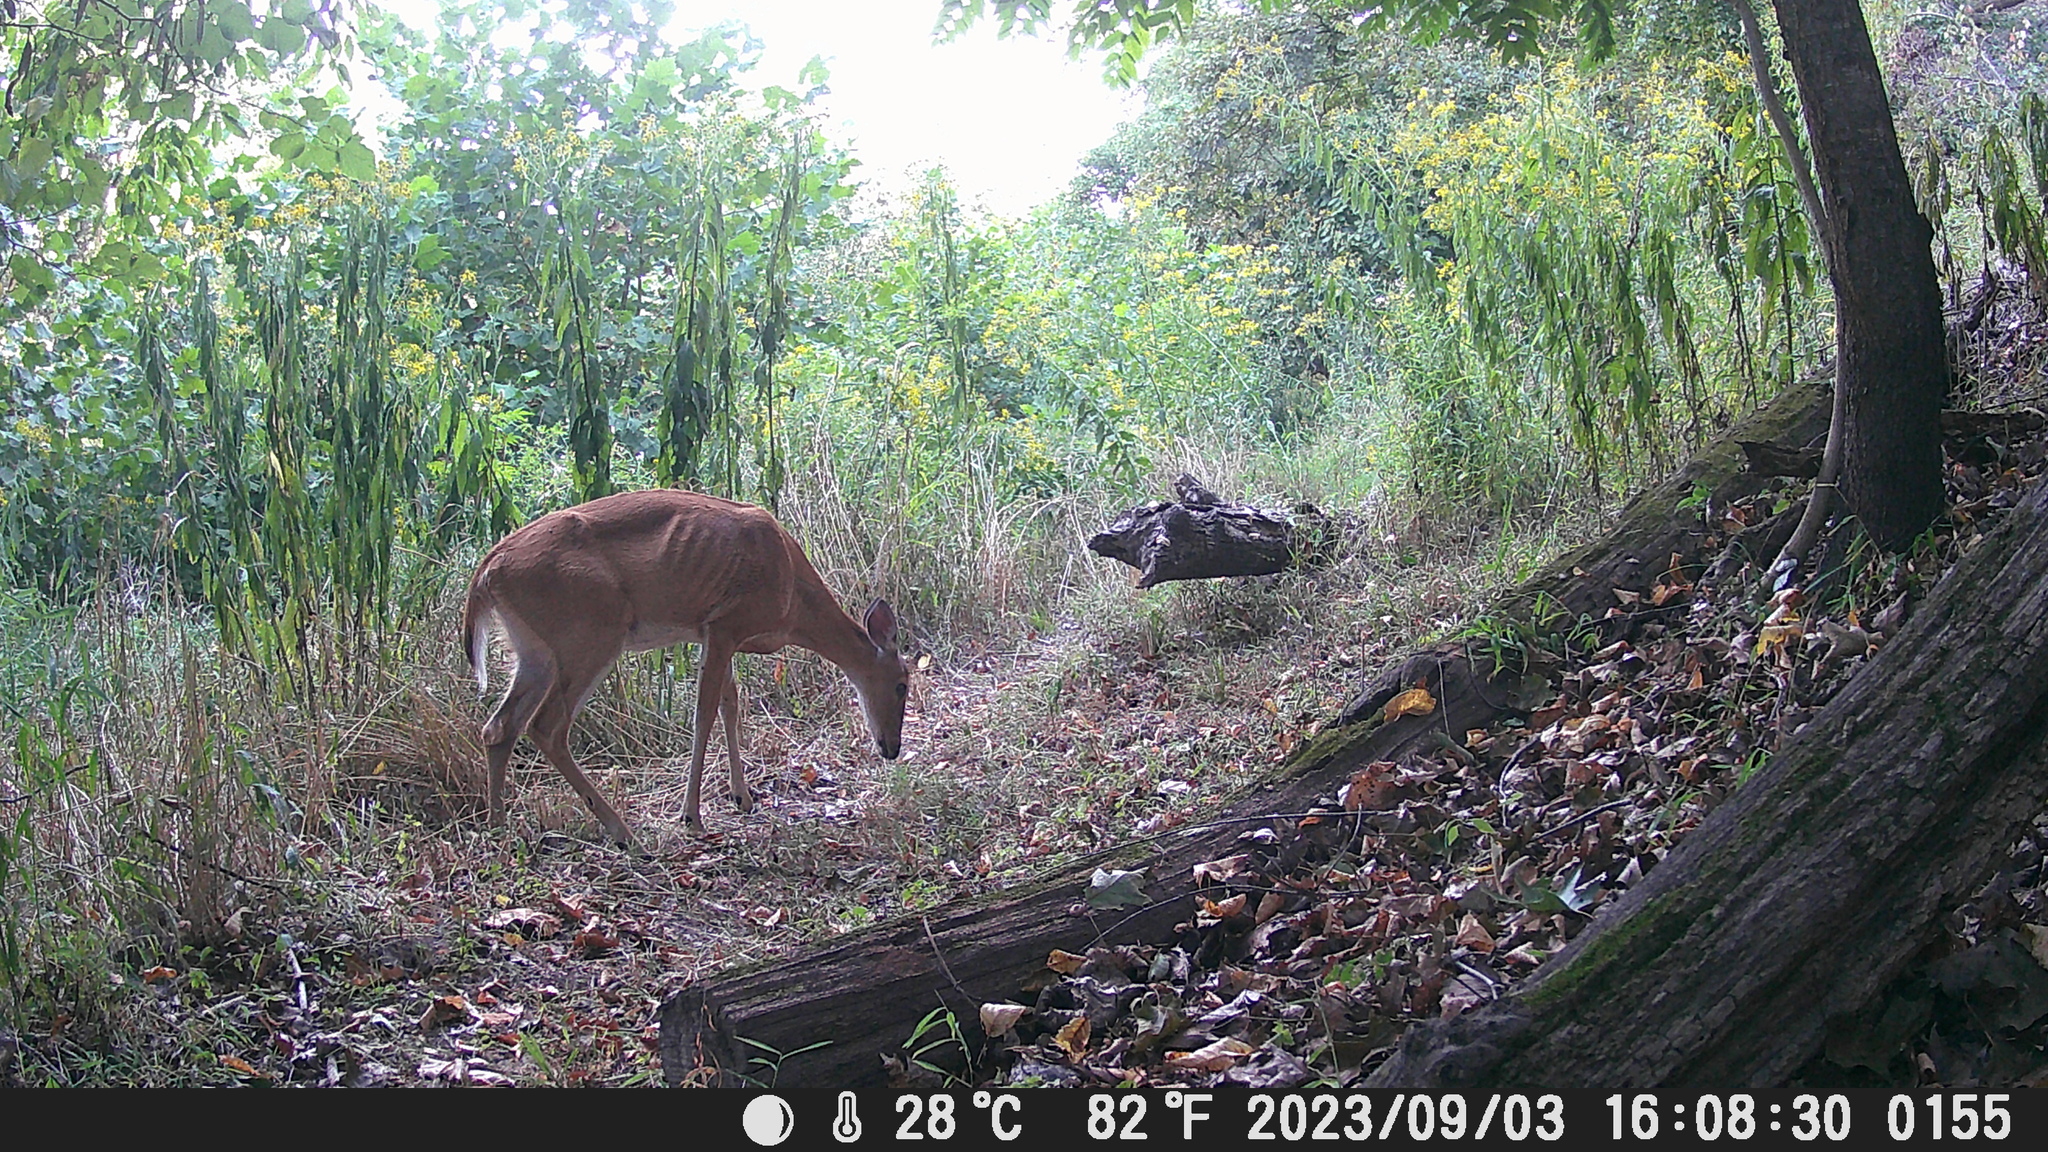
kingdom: Animalia
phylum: Chordata
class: Mammalia
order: Artiodactyla
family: Cervidae
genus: Odocoileus
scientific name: Odocoileus virginianus
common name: White-tailed deer
